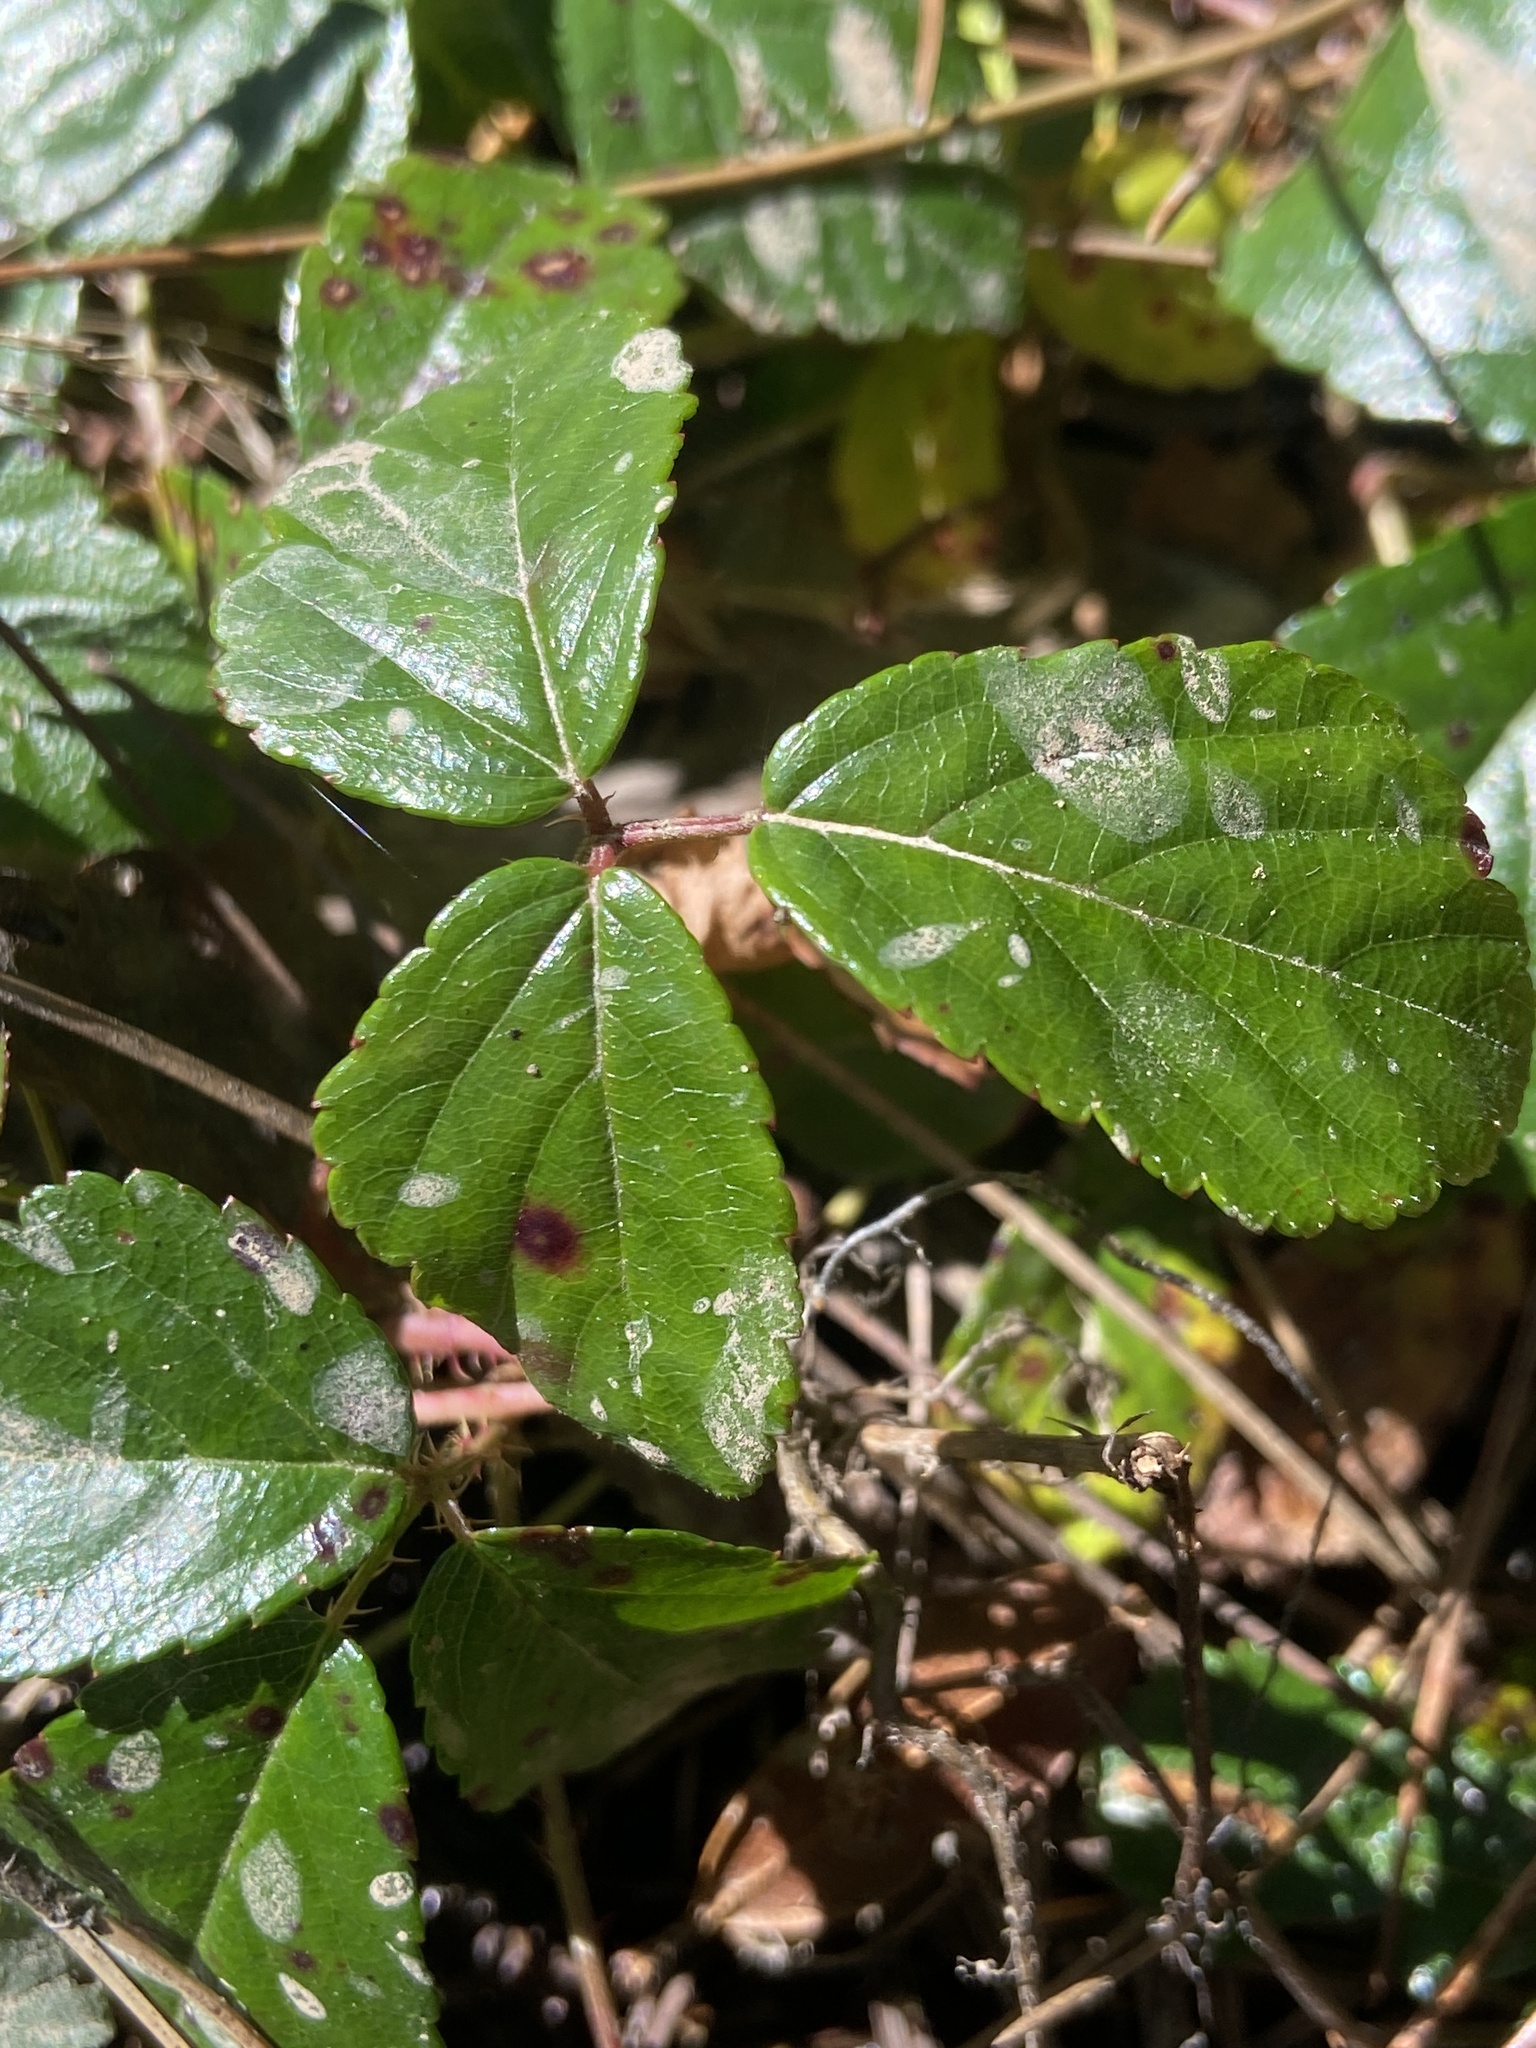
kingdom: Plantae
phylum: Tracheophyta
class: Magnoliopsida
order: Rosales
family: Rosaceae
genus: Rubus
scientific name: Rubus hispidus
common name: Running blackberry
